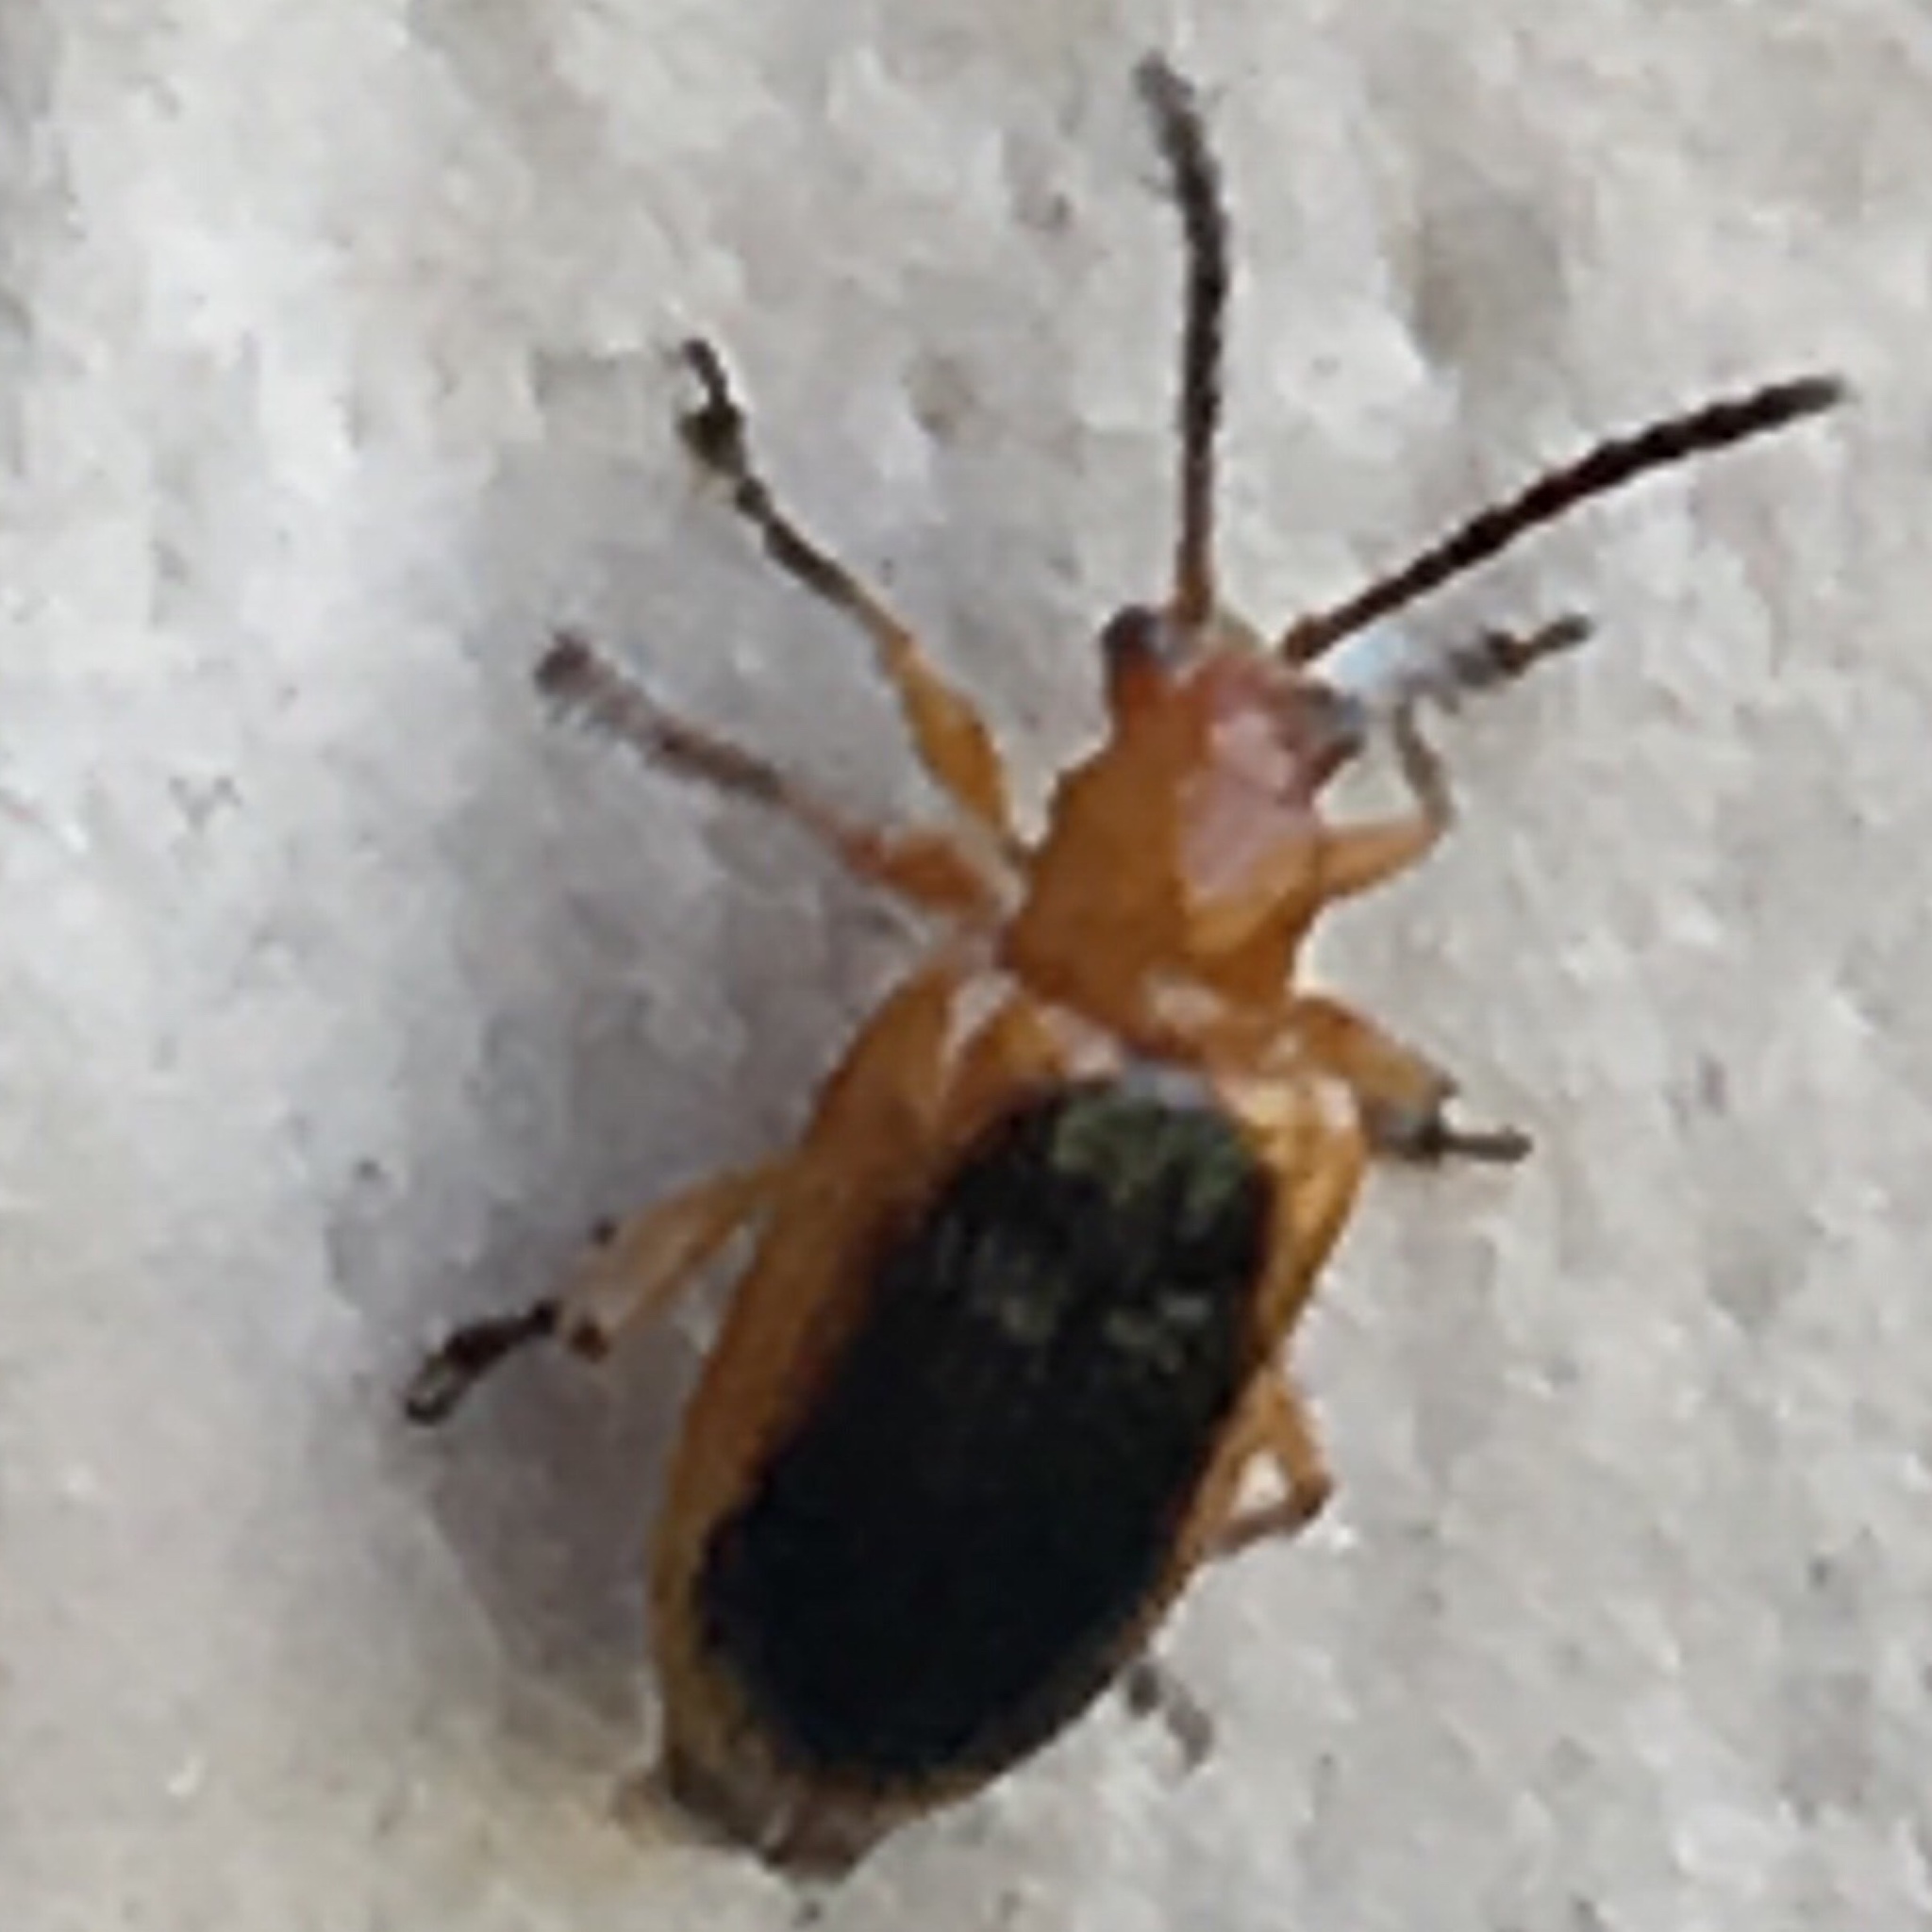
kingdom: Animalia
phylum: Arthropoda
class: Insecta
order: Coleoptera
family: Chrysomelidae
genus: Neolema
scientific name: Neolema ovalis
